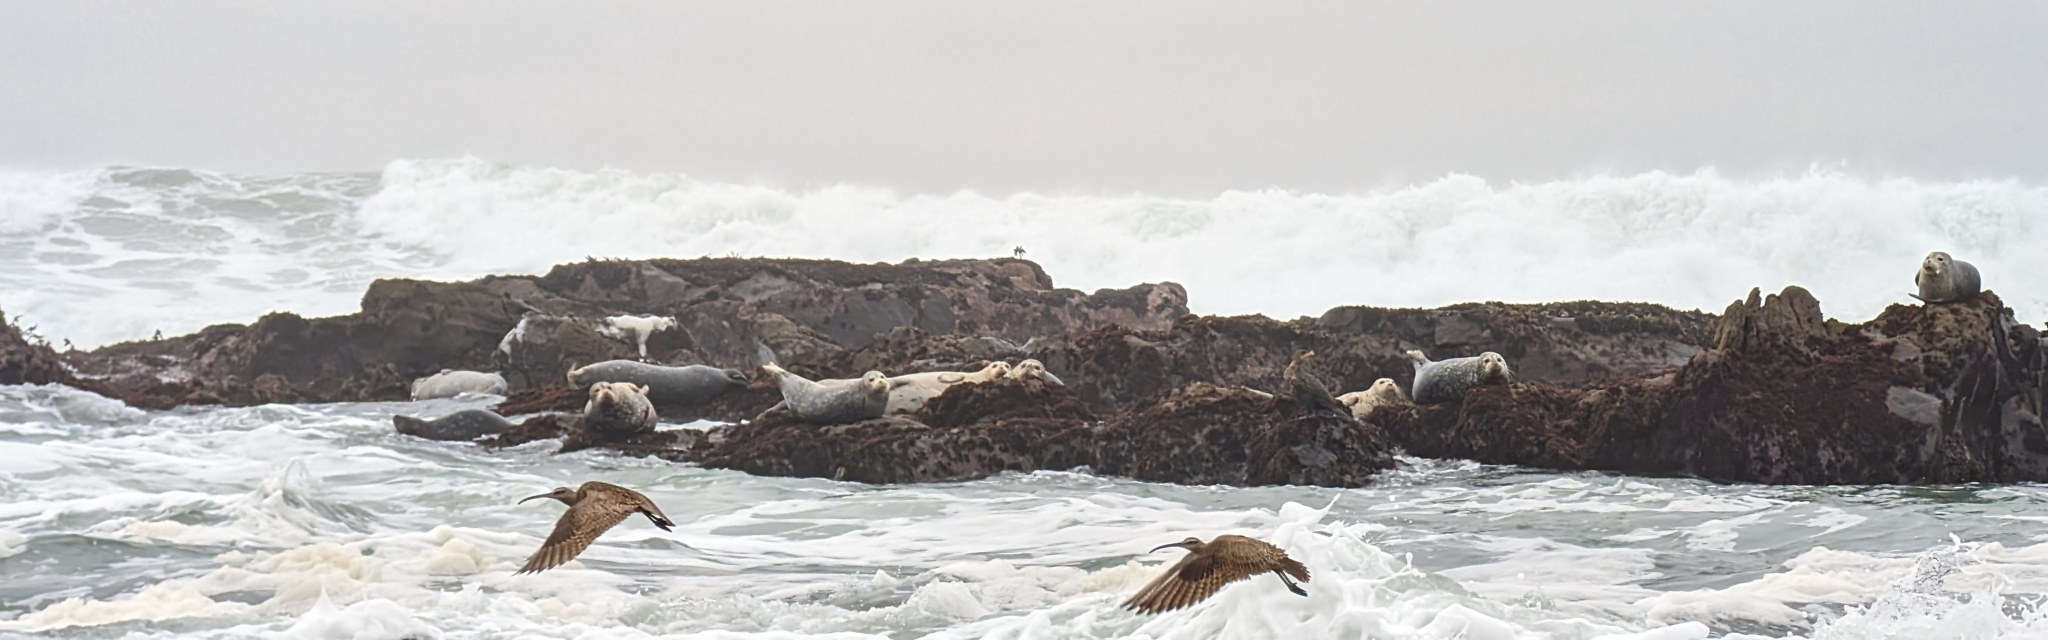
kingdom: Animalia
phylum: Chordata
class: Mammalia
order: Carnivora
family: Phocidae
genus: Phoca
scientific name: Phoca vitulina
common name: Harbor seal
